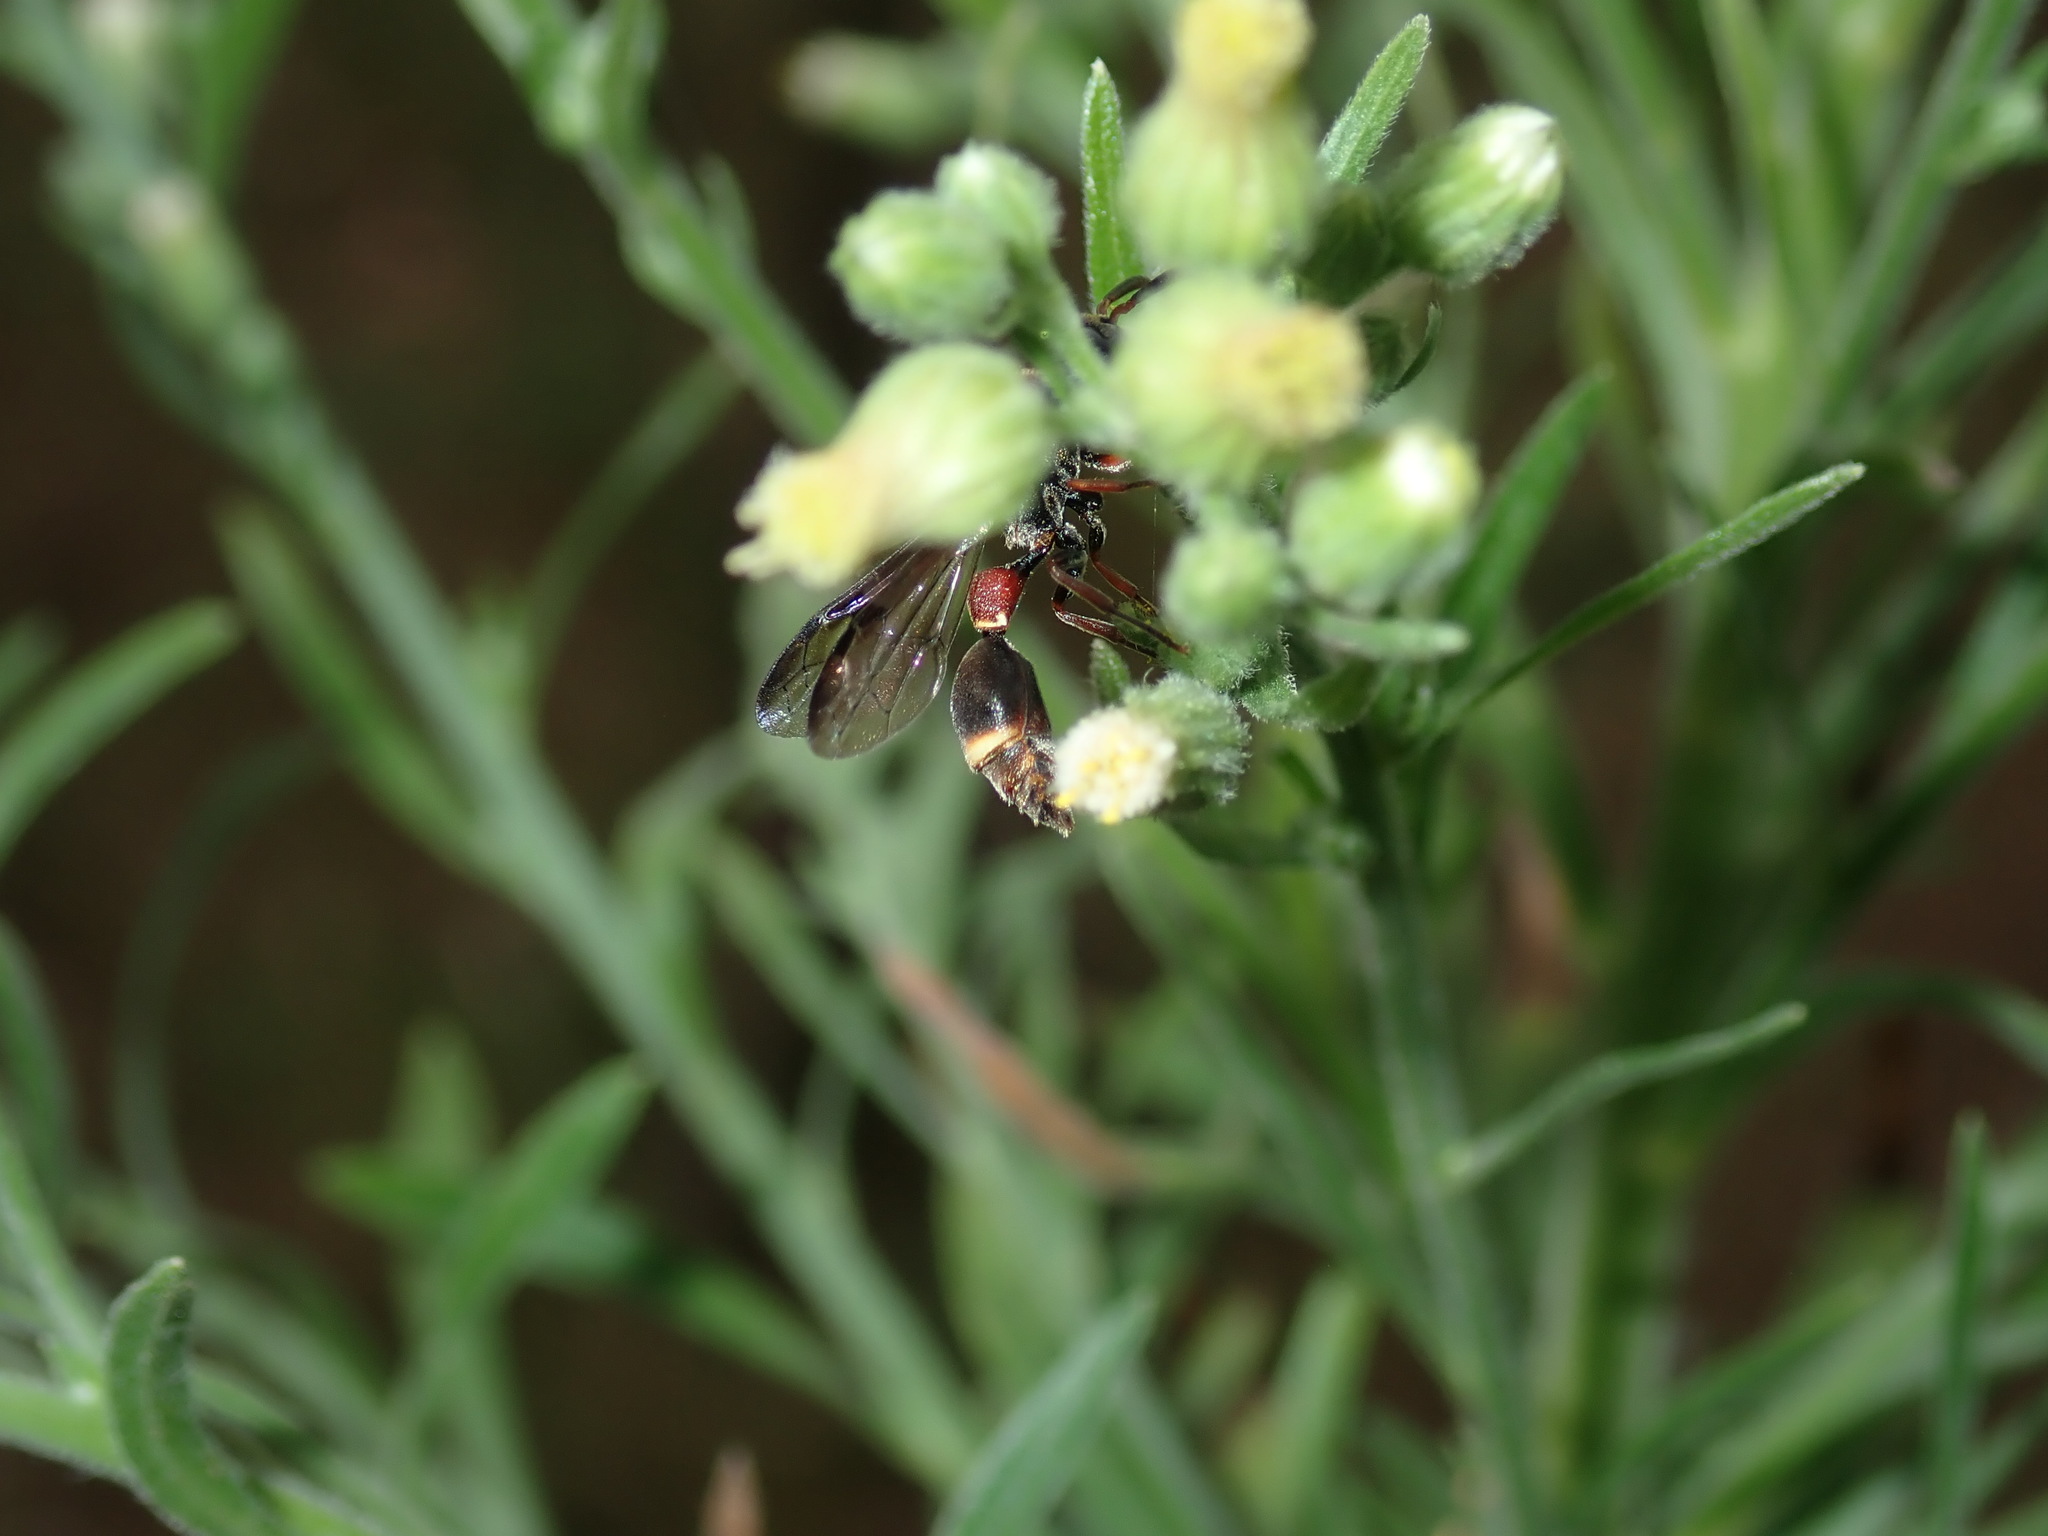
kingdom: Animalia
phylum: Arthropoda
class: Insecta
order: Hymenoptera
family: Eumenidae
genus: Macrocalymma
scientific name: Macrocalymma smithianum
